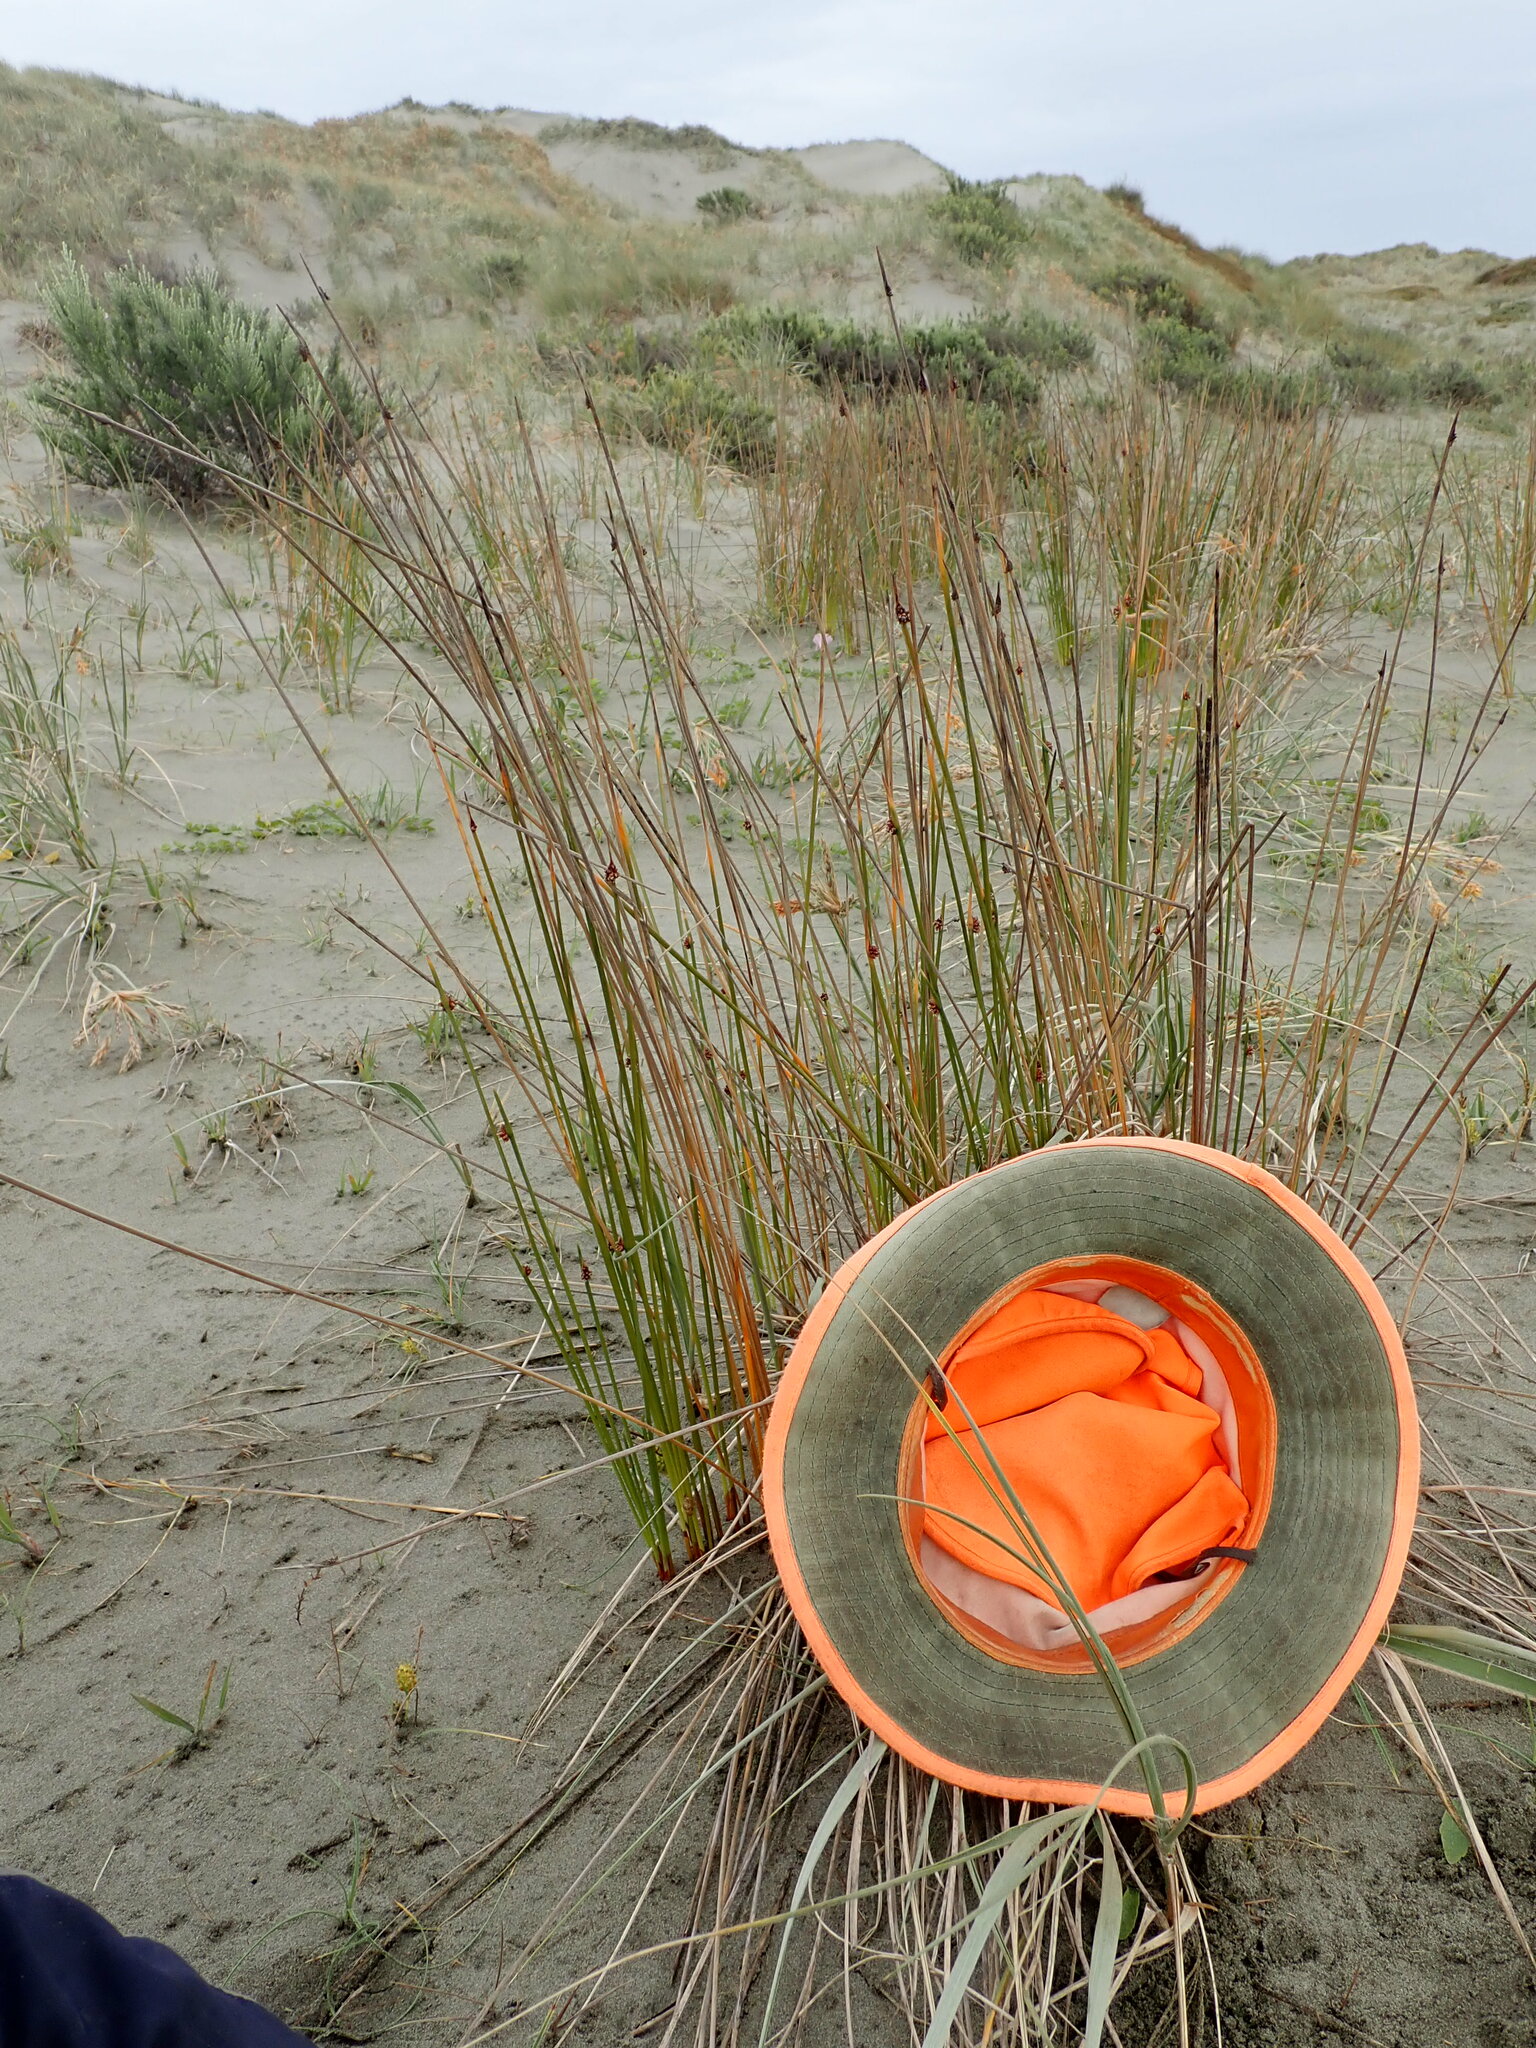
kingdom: Plantae
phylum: Tracheophyta
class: Magnoliopsida
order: Asterales
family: Asteraceae
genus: Ozothamnus
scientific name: Ozothamnus leptophyllus
